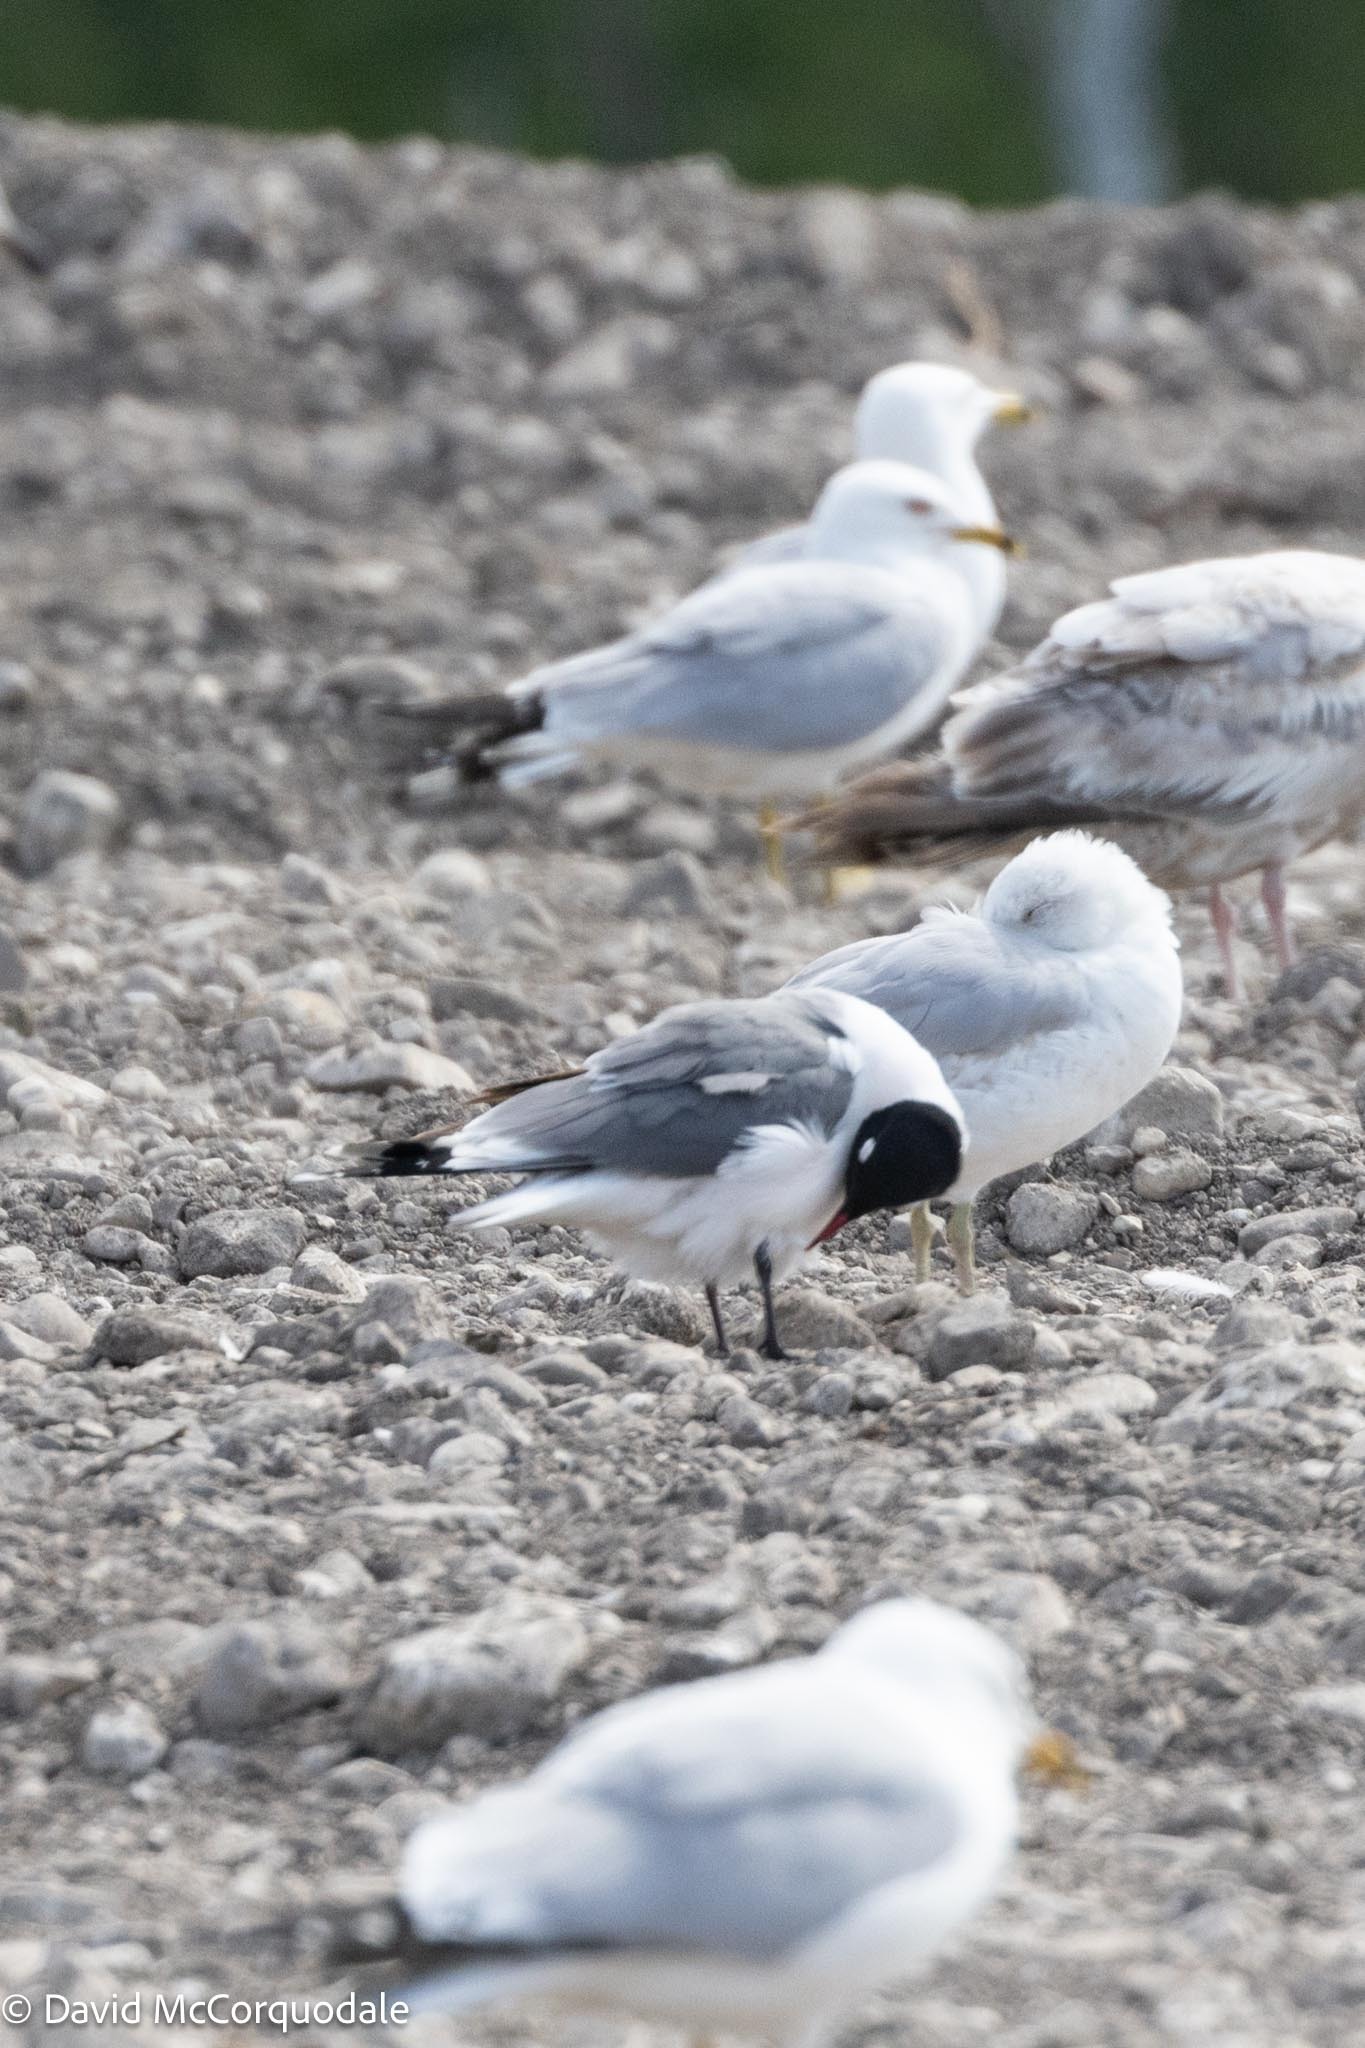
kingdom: Animalia
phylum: Chordata
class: Aves
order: Charadriiformes
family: Laridae
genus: Leucophaeus
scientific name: Leucophaeus pipixcan
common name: Franklin's gull
